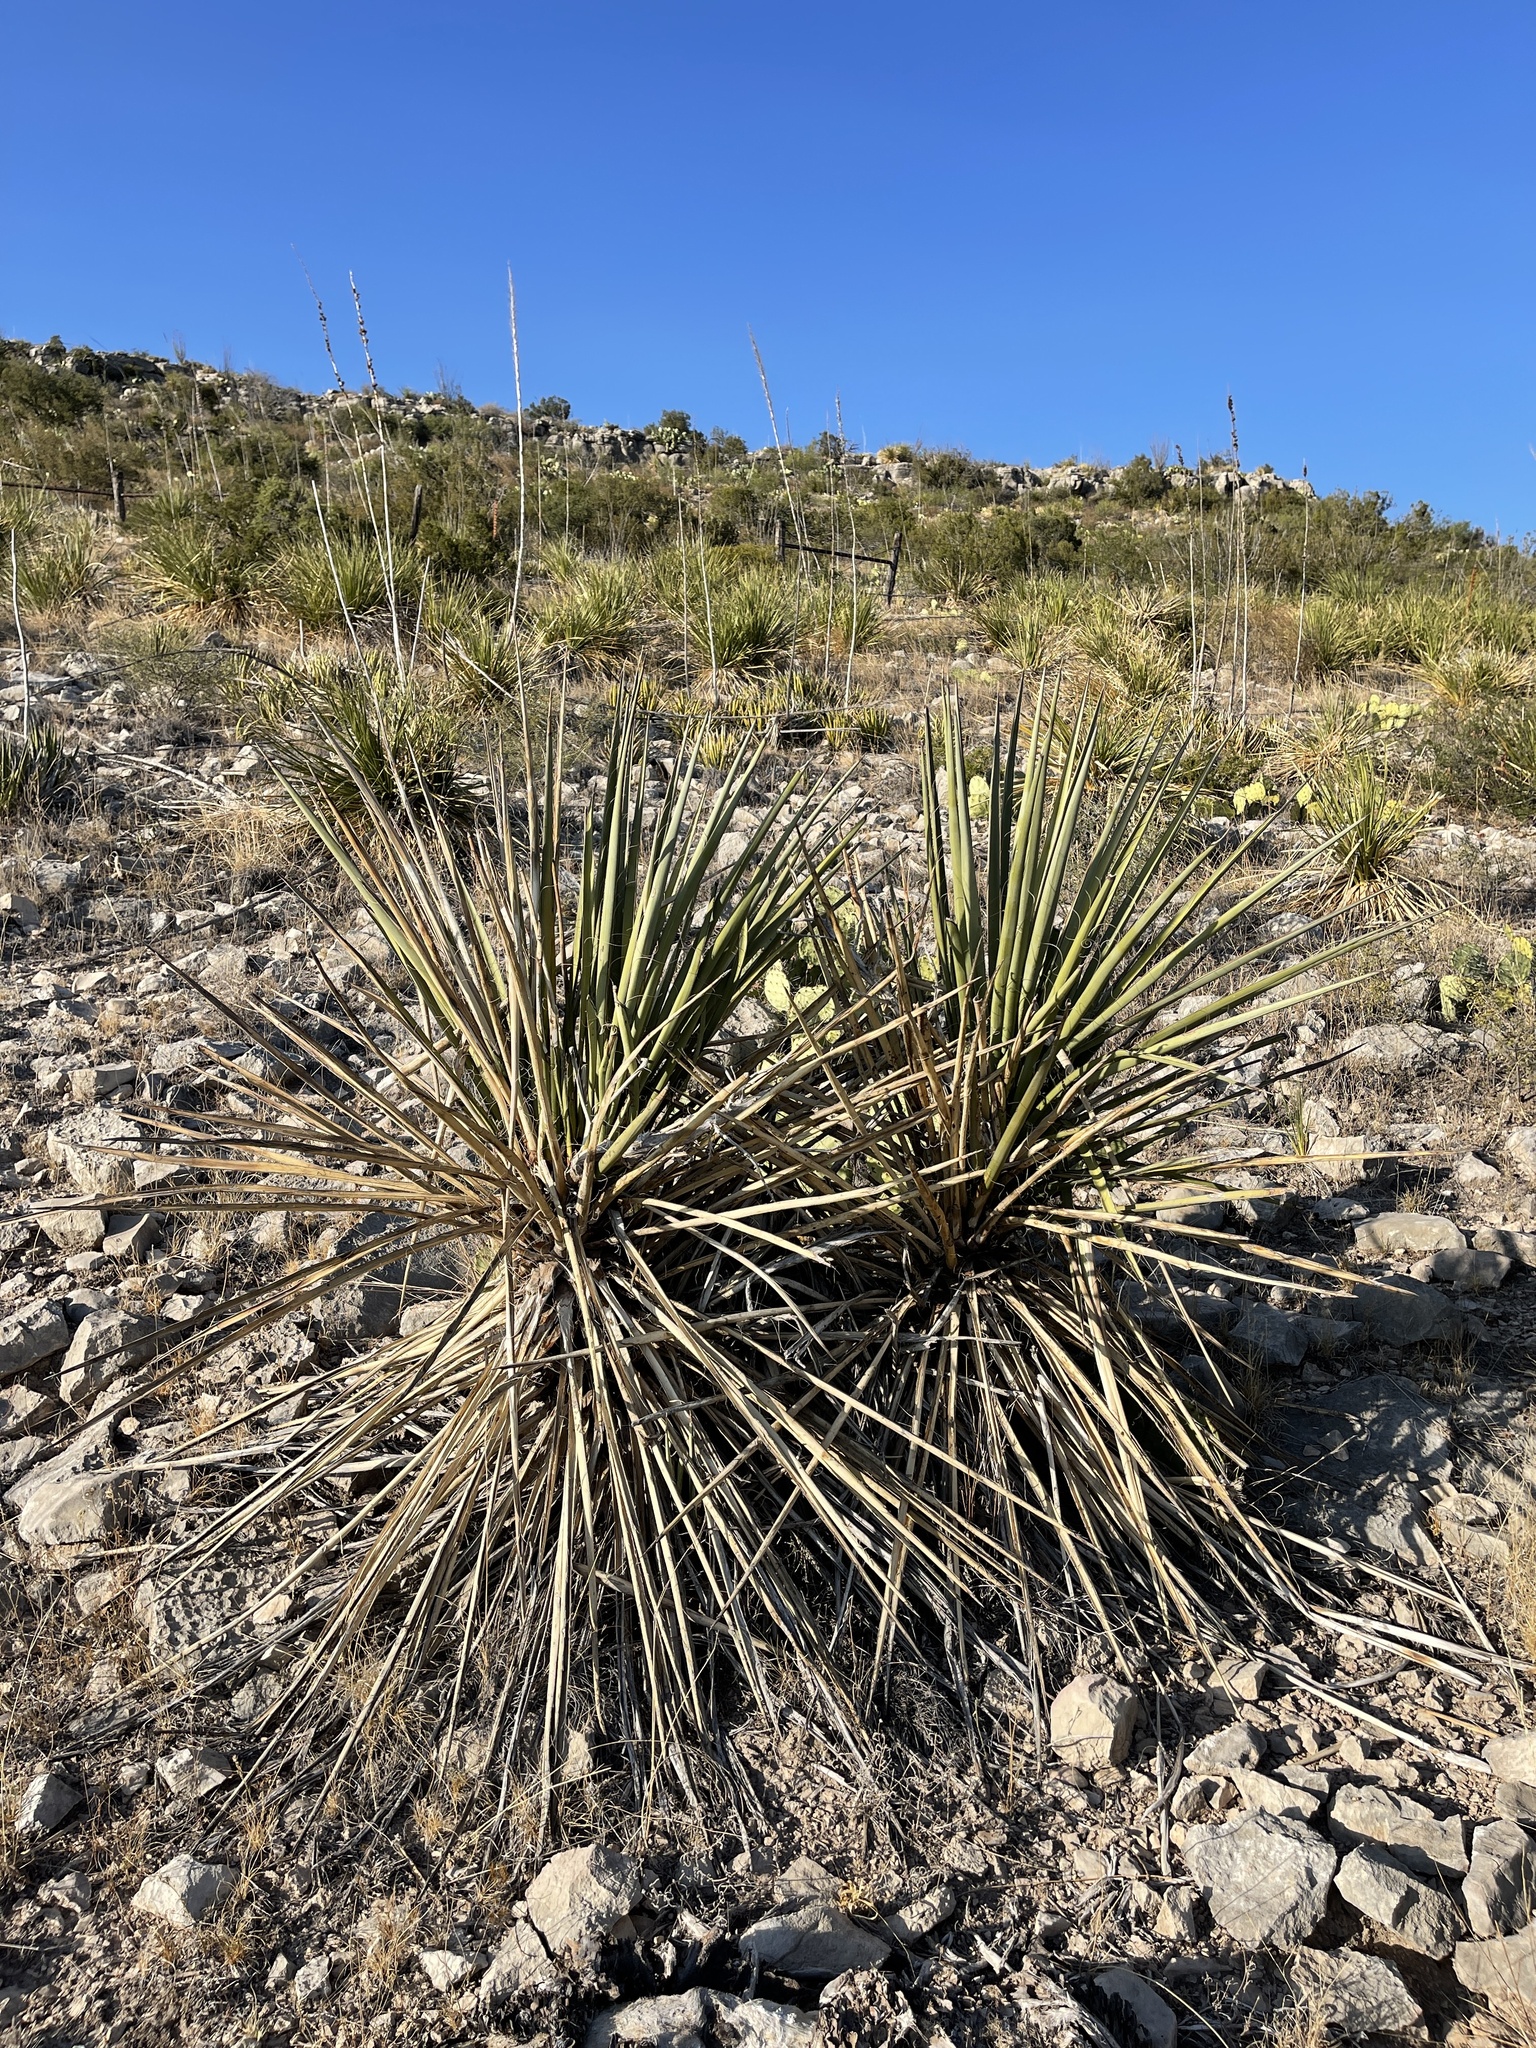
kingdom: Plantae
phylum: Tracheophyta
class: Liliopsida
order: Asparagales
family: Asparagaceae
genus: Yucca
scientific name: Yucca treculiana
